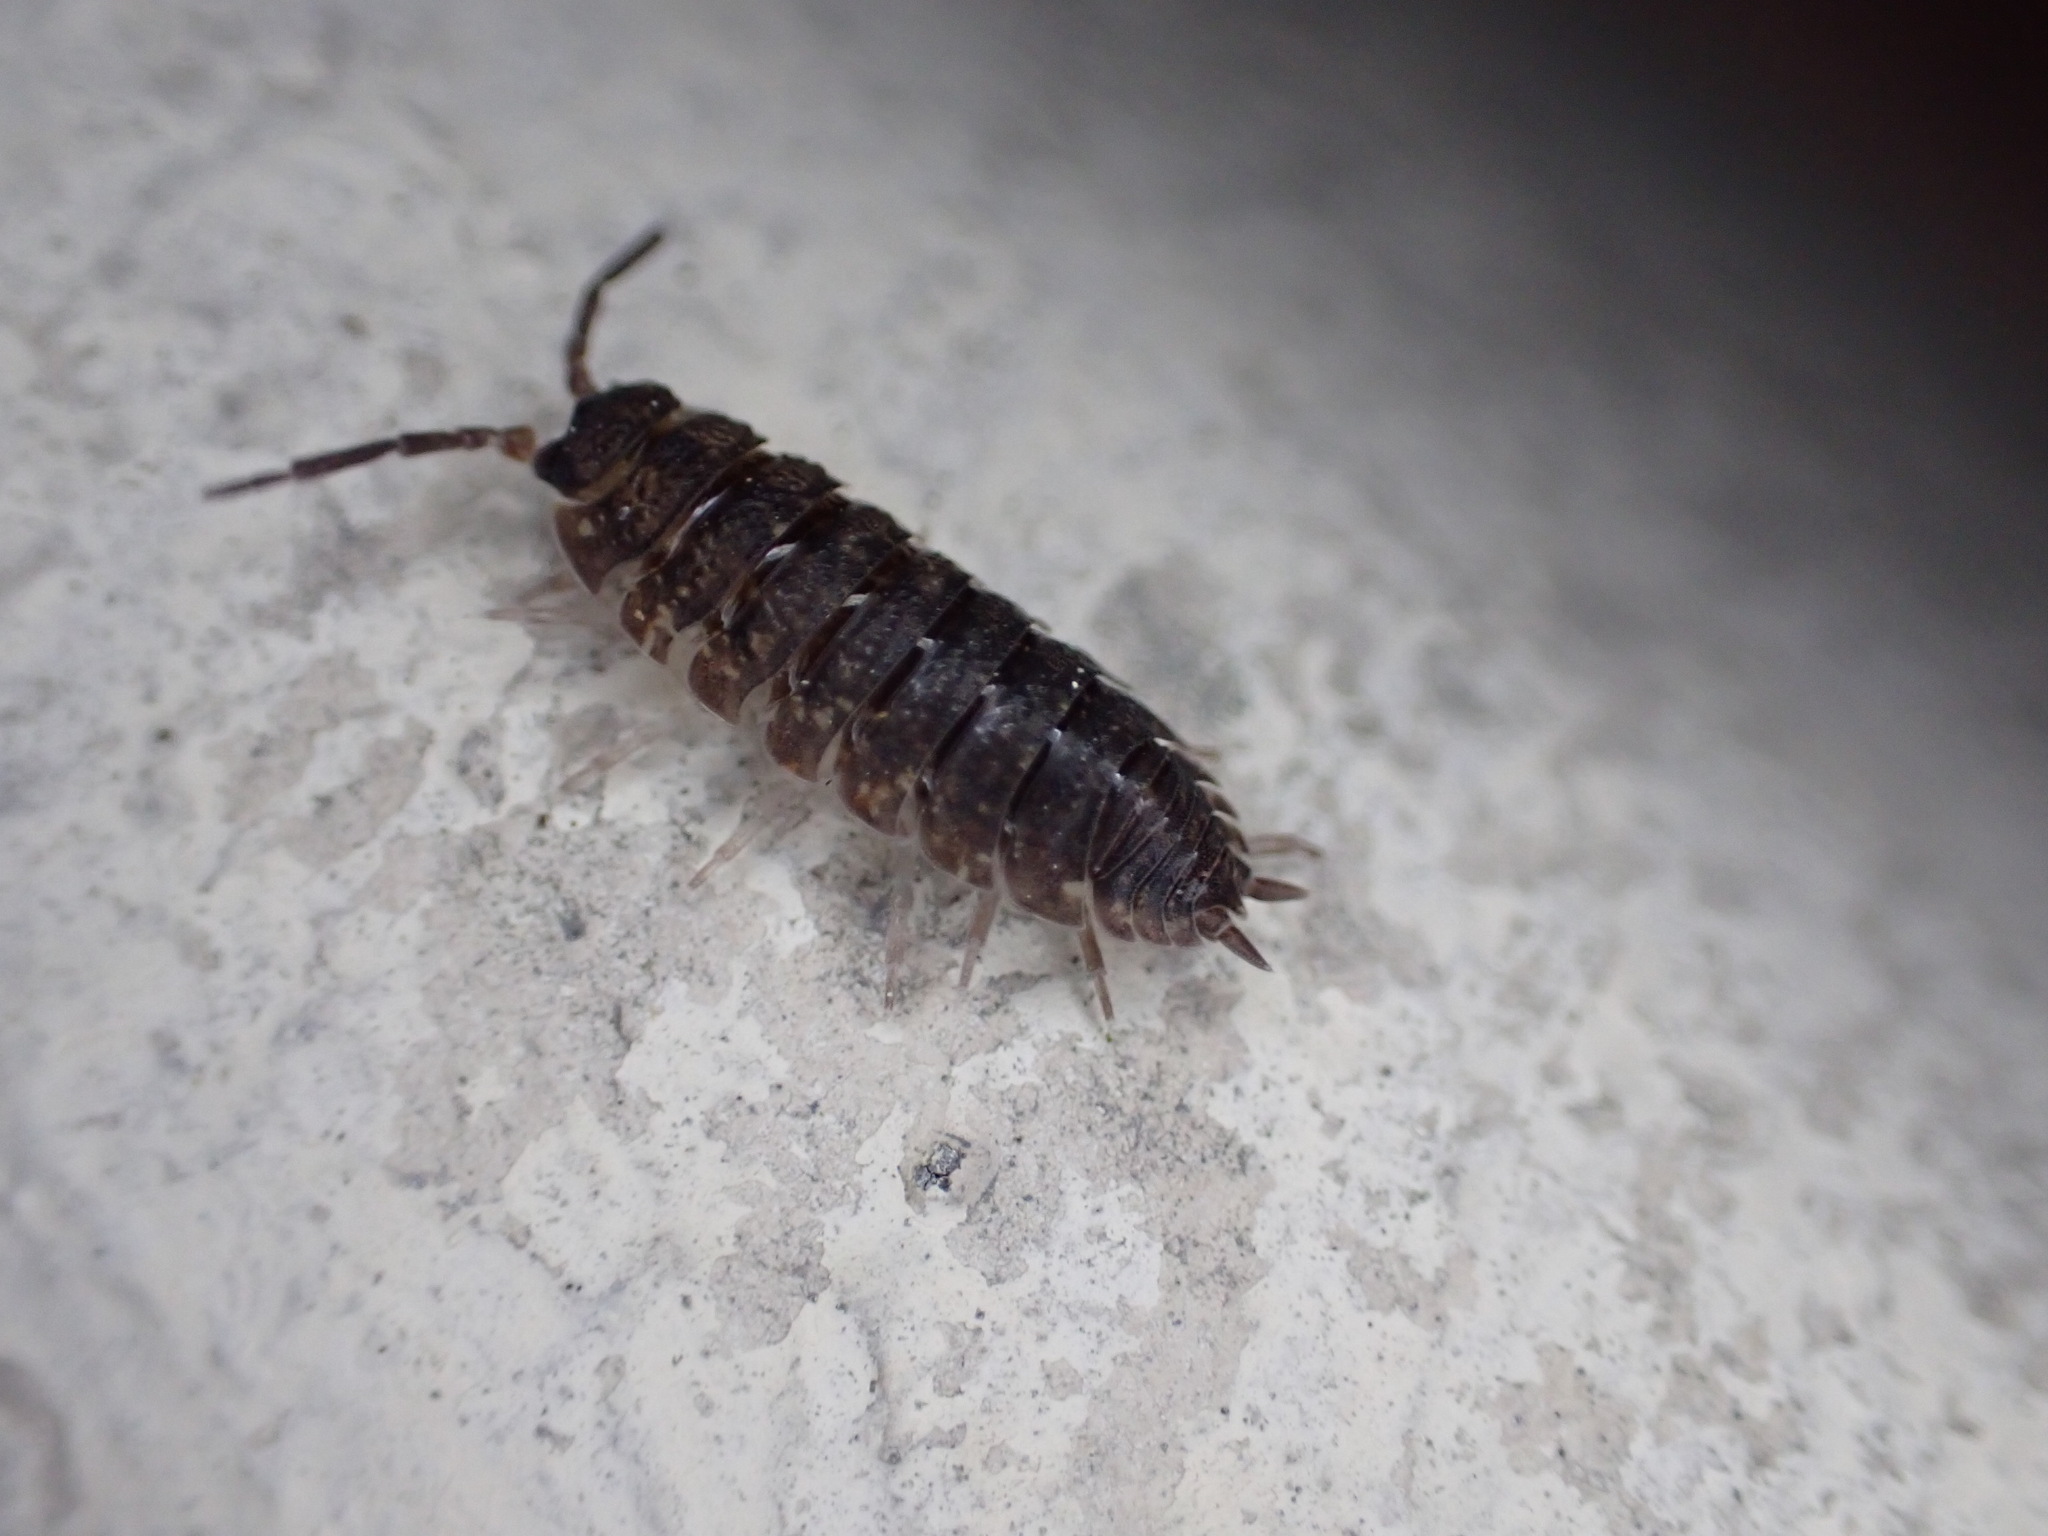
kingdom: Animalia
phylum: Arthropoda
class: Malacostraca
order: Isopoda
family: Porcellionidae
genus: Porcellio
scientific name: Porcellio scaber
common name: Common rough woodlouse
